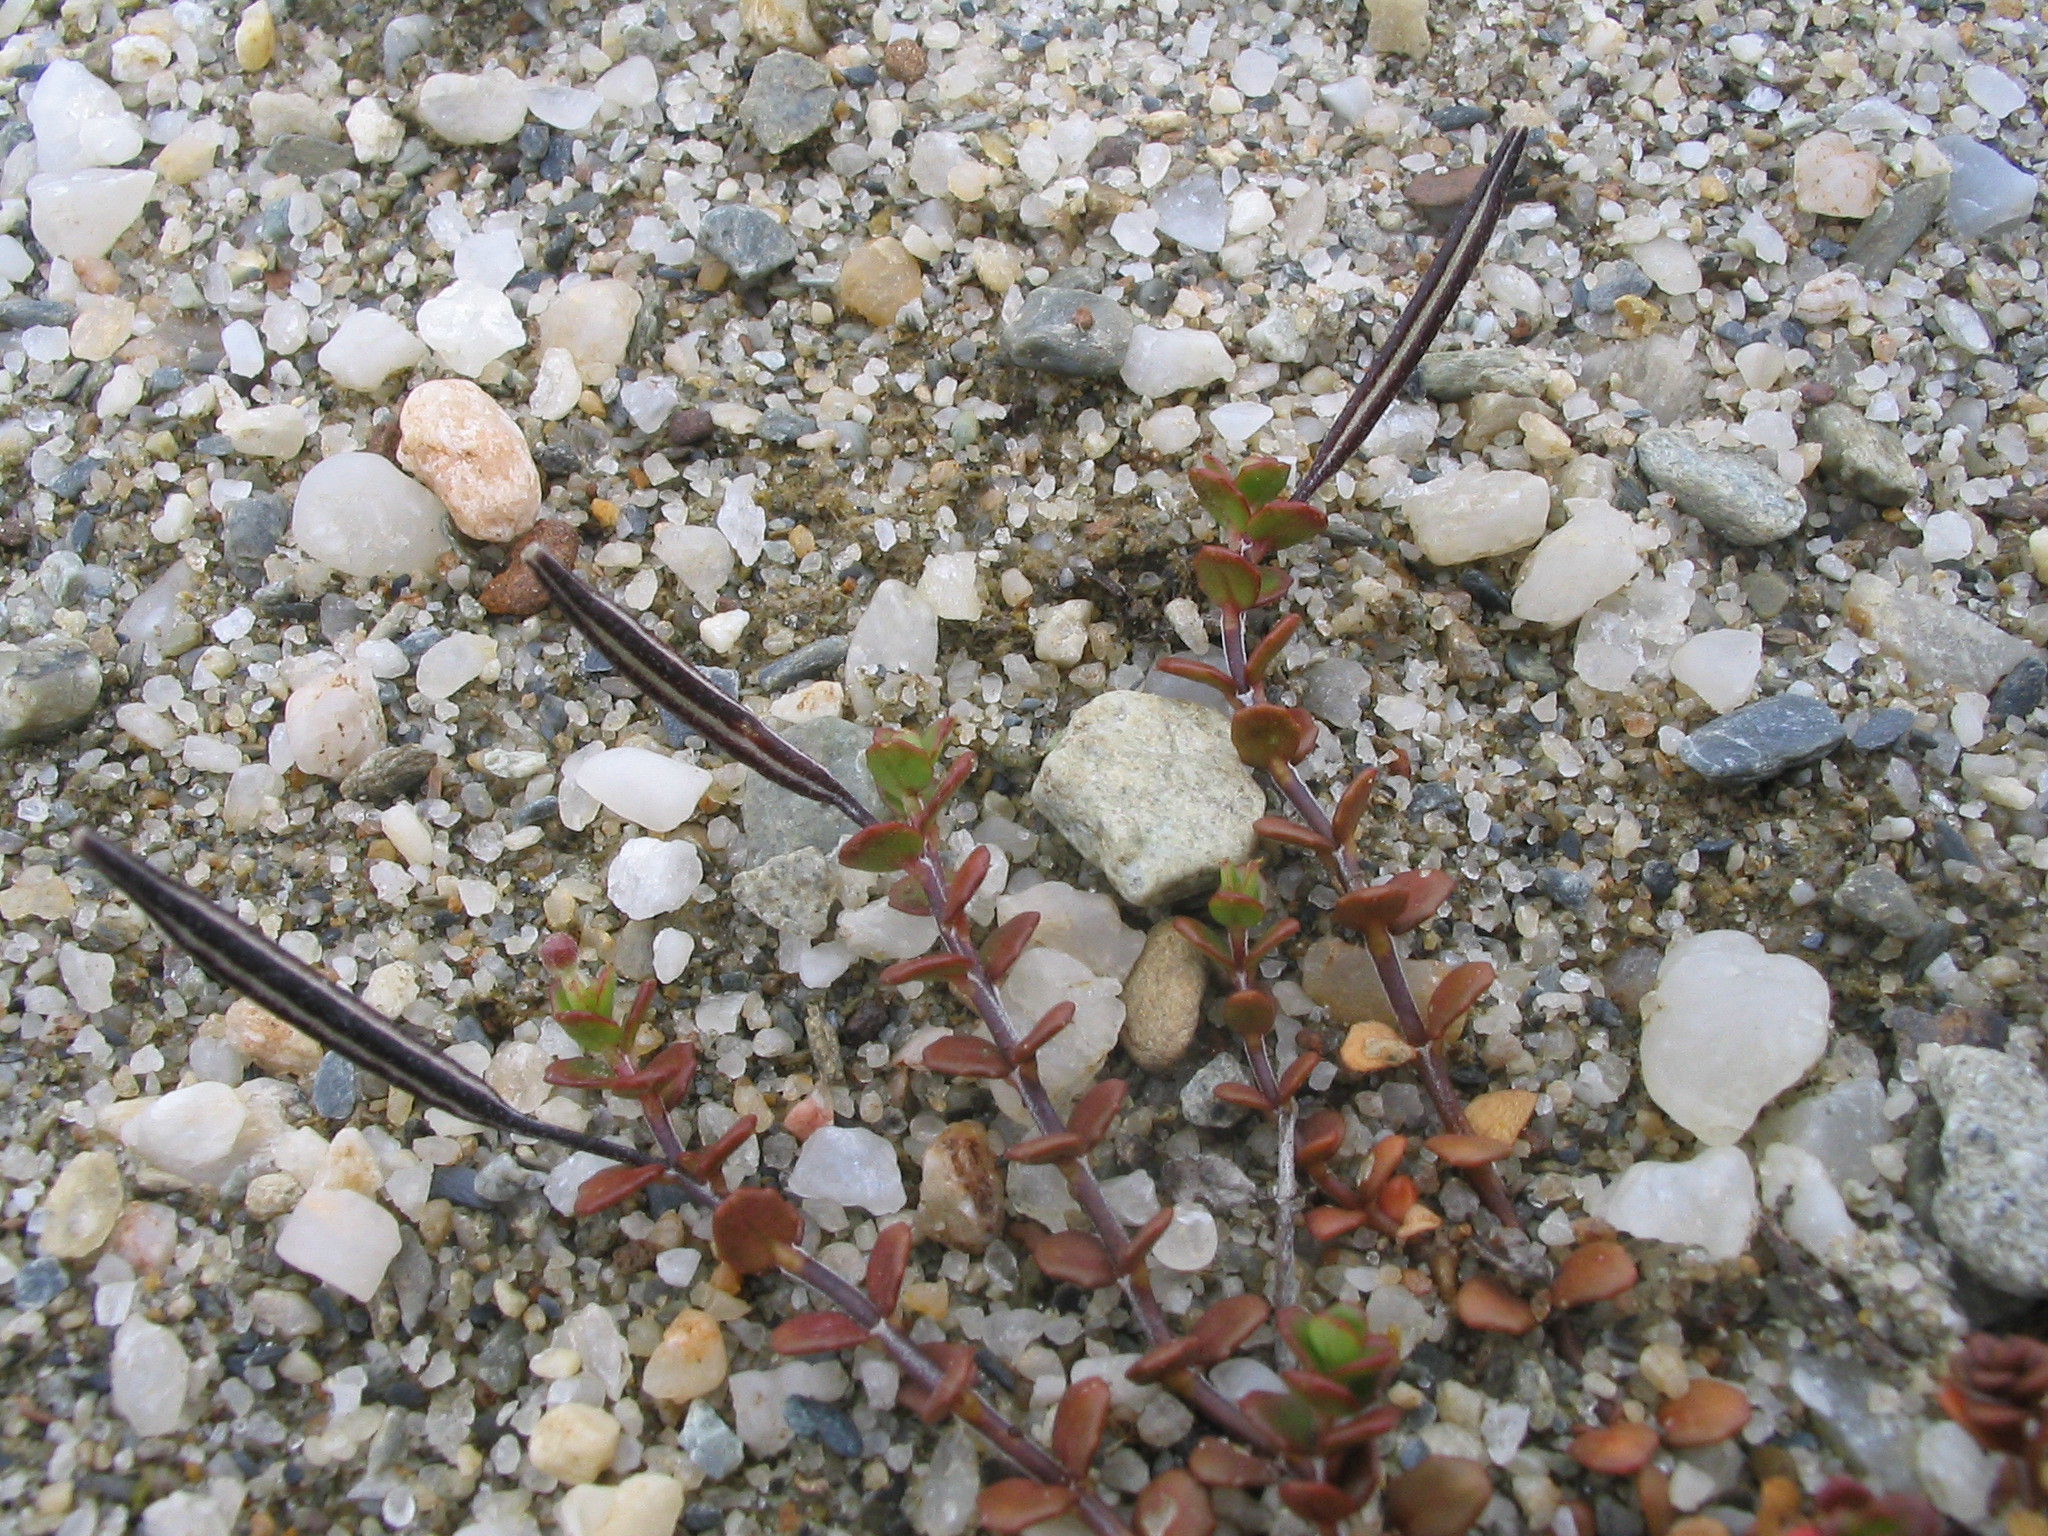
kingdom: Plantae
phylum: Tracheophyta
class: Magnoliopsida
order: Myrtales
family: Onagraceae
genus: Epilobium
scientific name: Epilobium microphyllum
